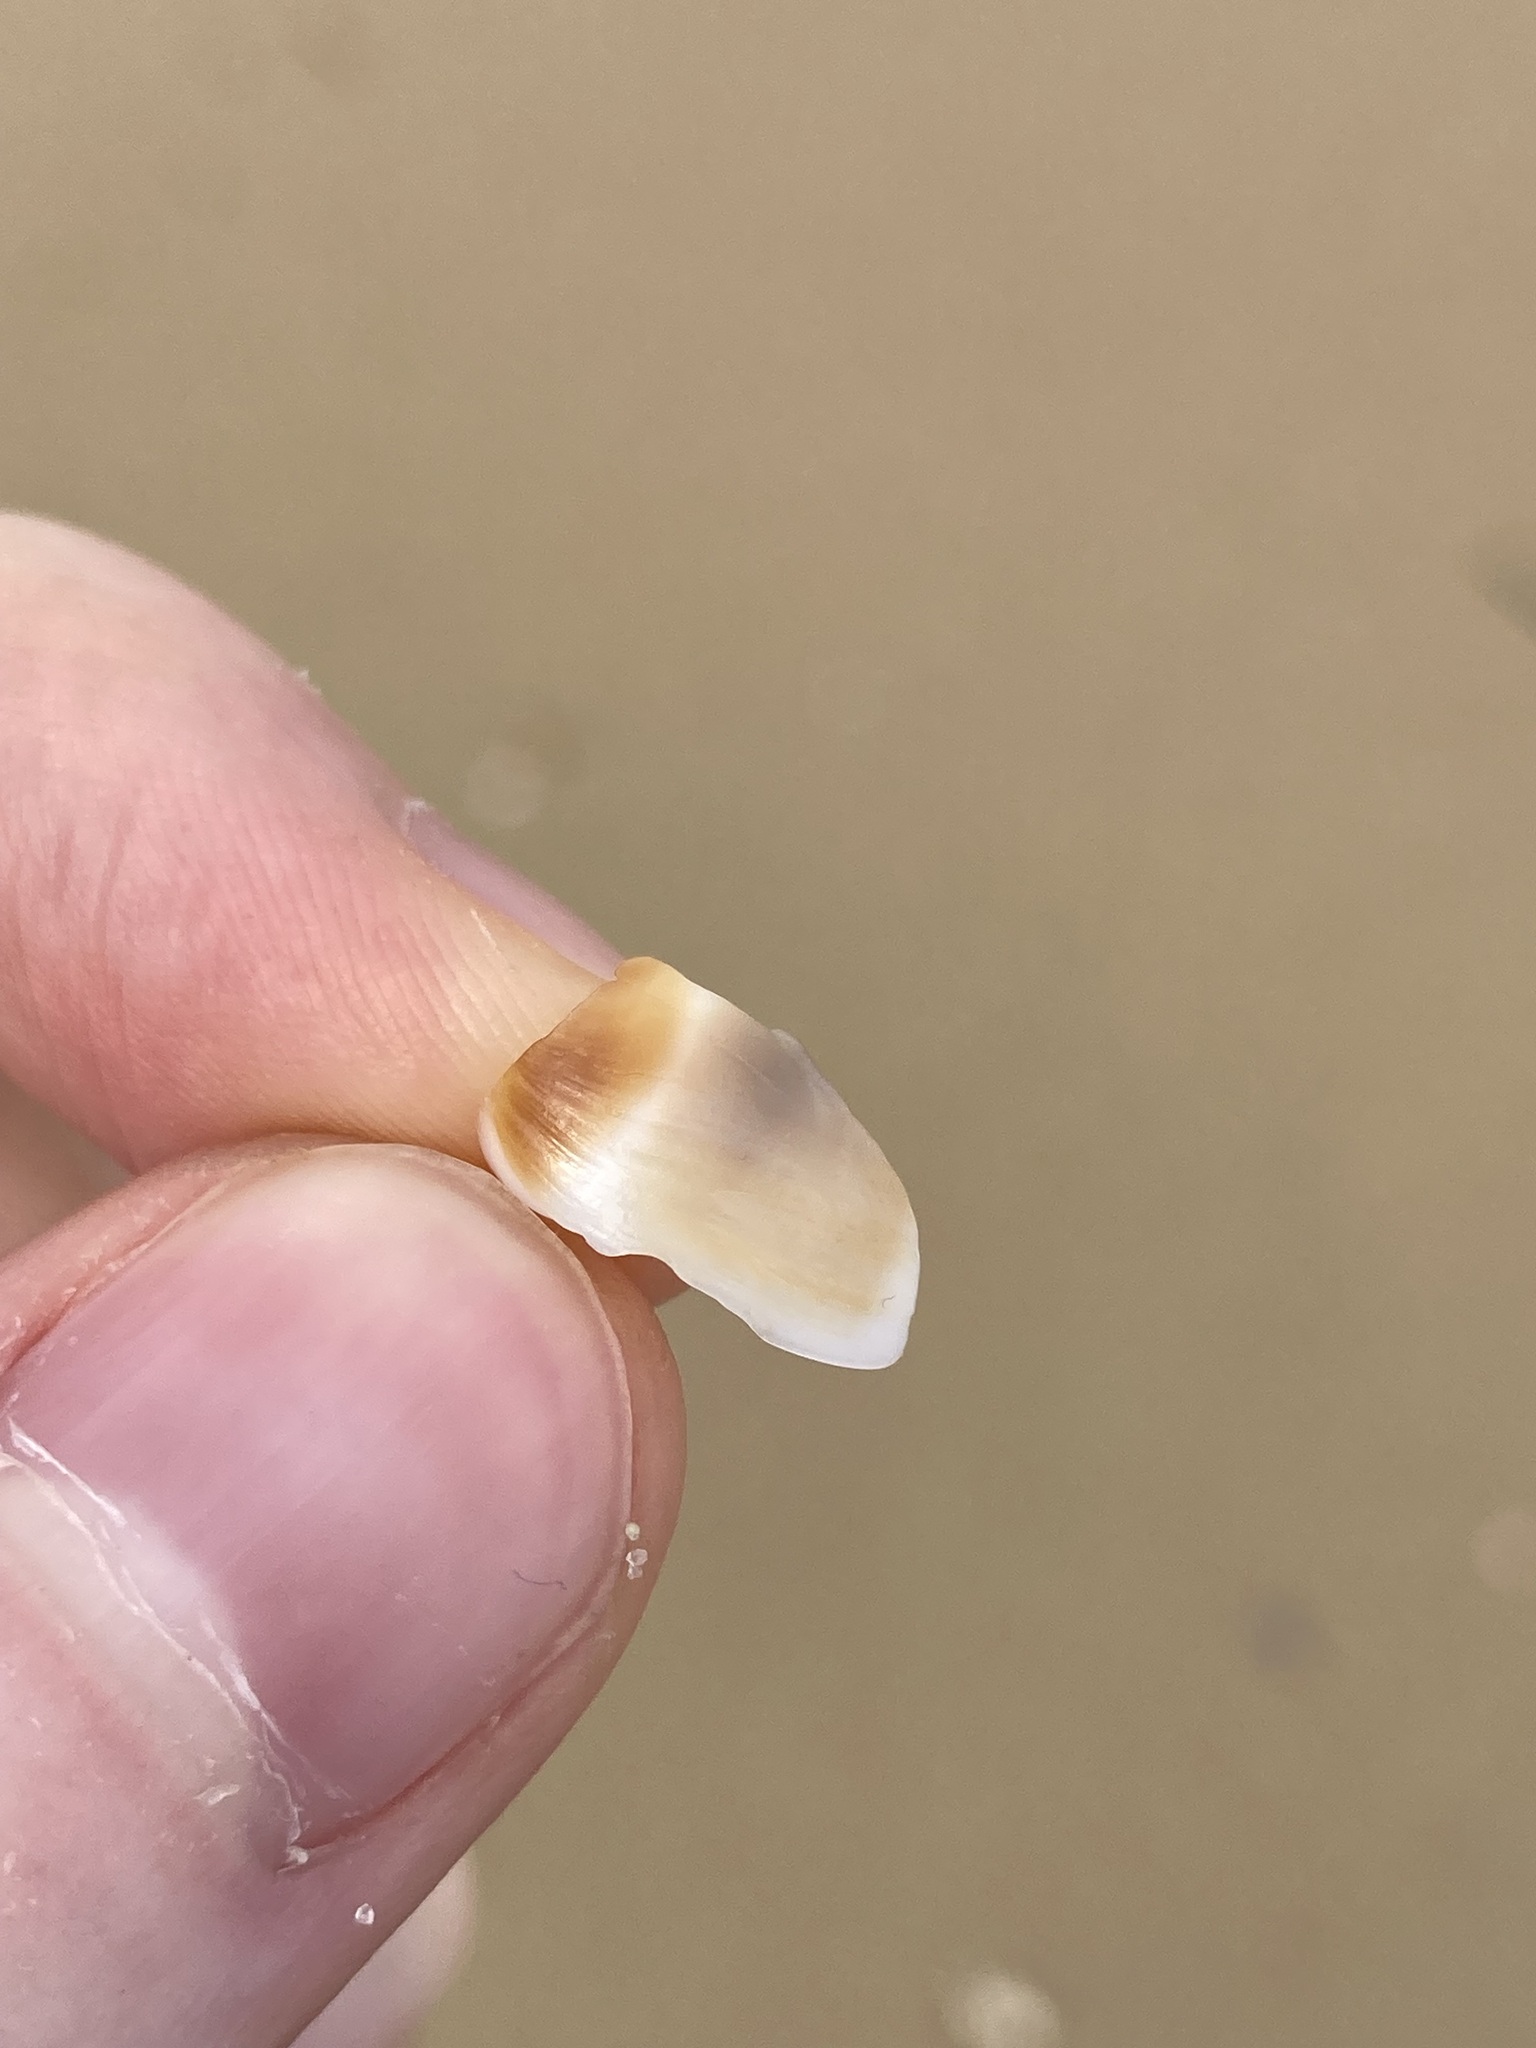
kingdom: Animalia
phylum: Mollusca
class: Gastropoda
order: Littorinimorpha
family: Naticidae
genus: Conuber
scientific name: Conuber conicum
